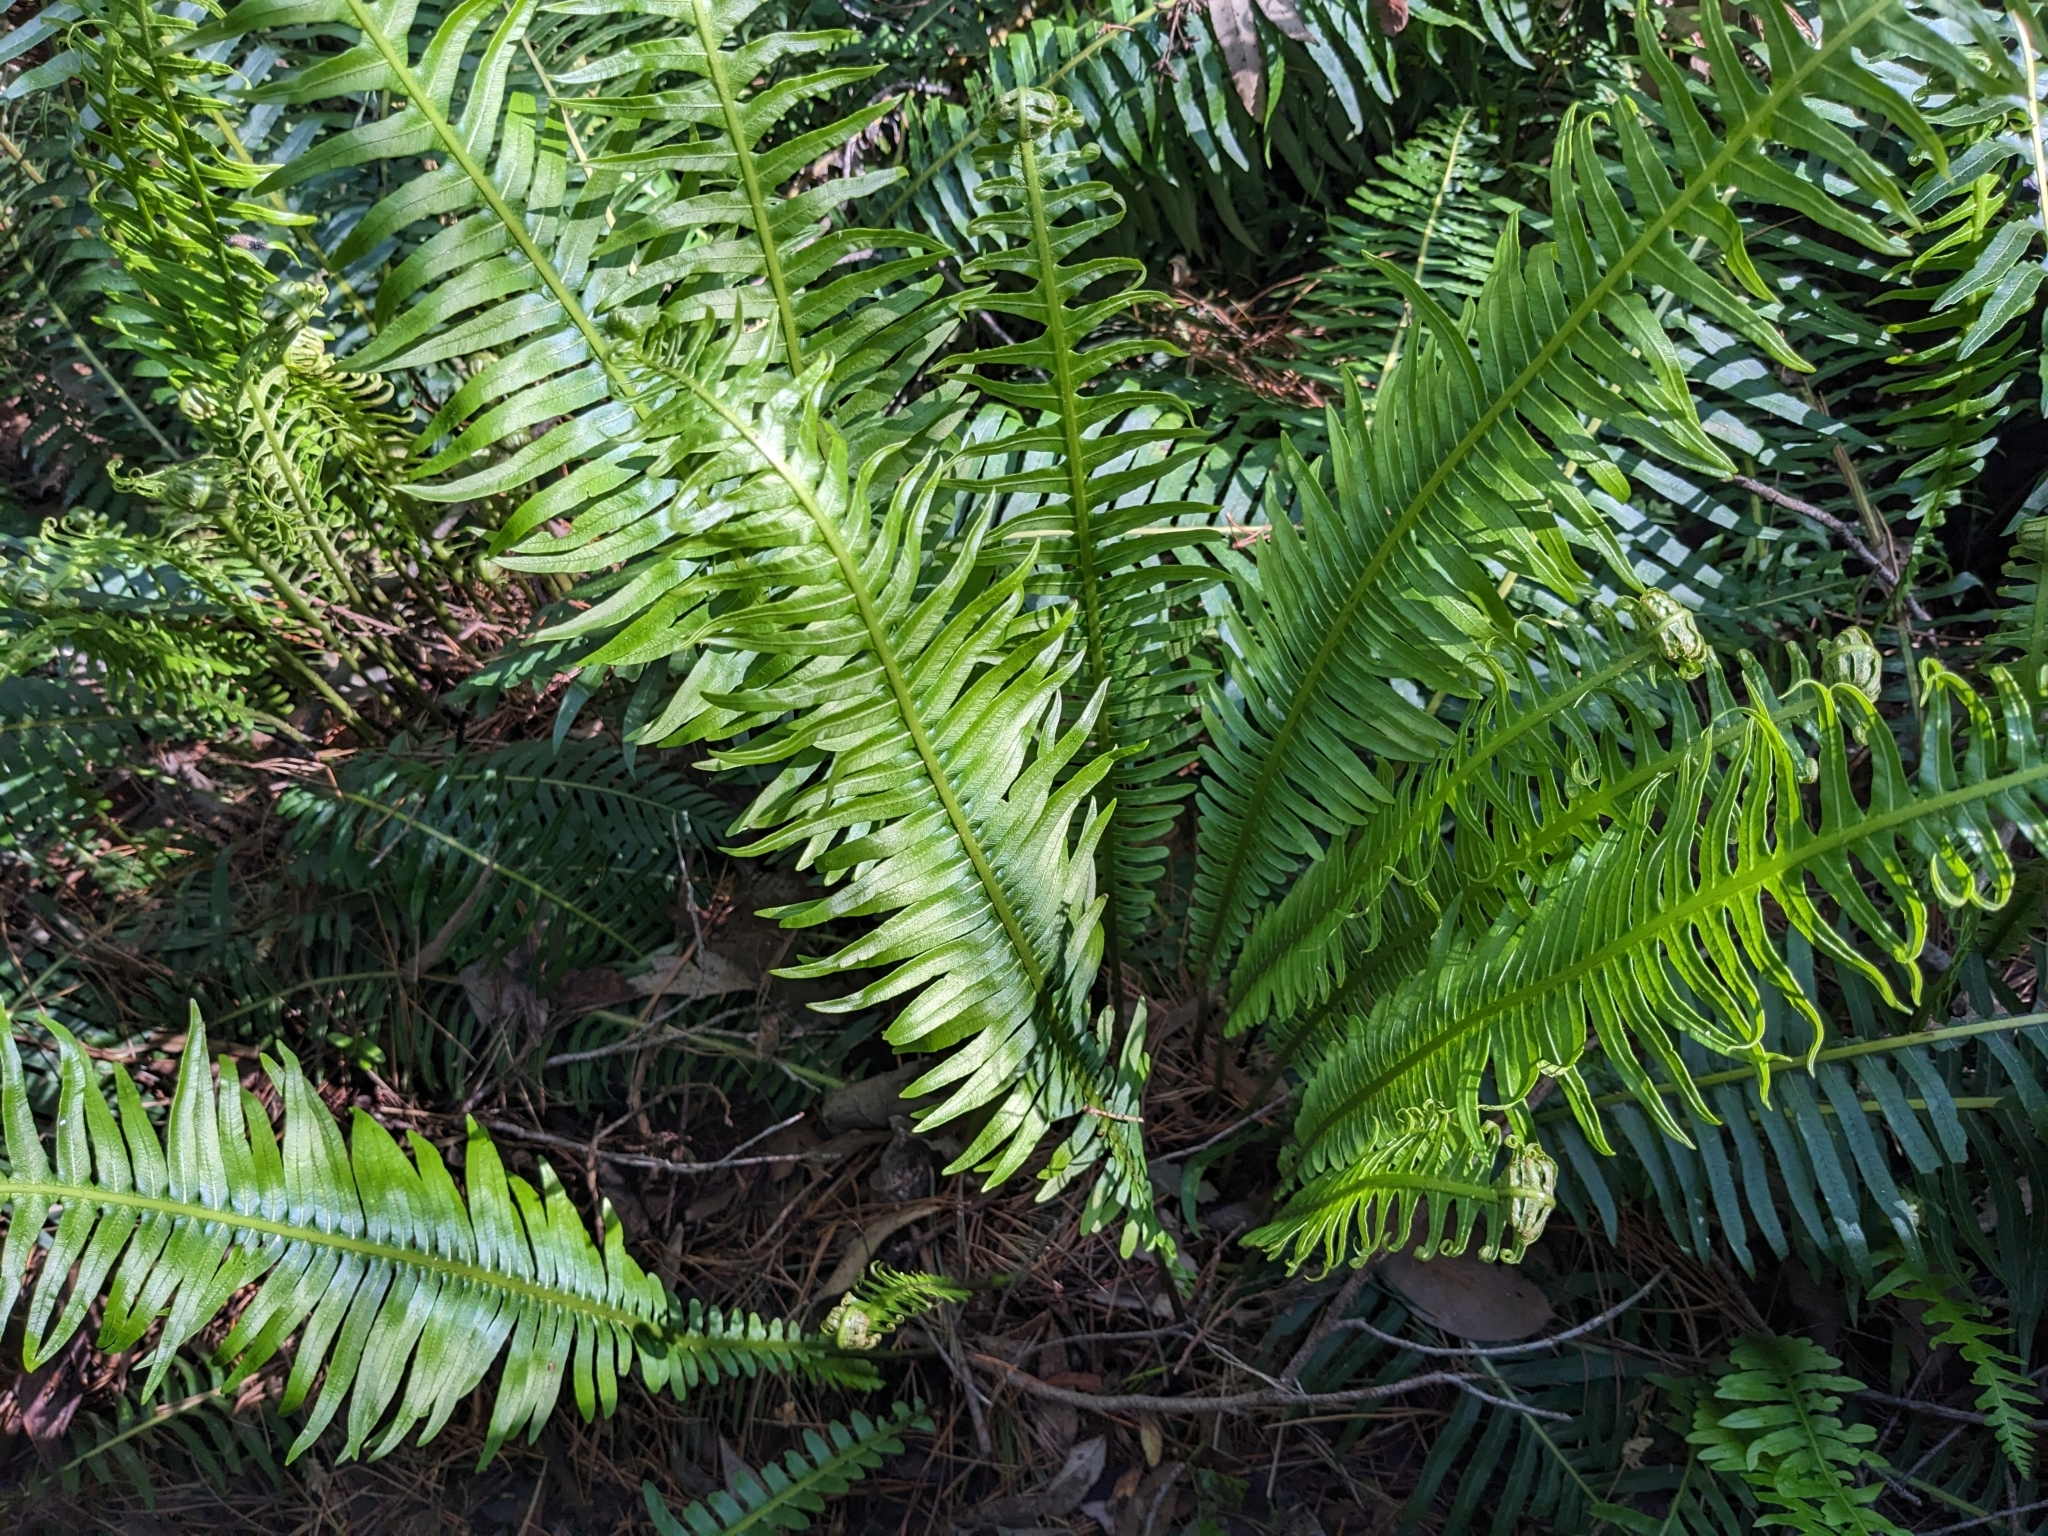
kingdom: Plantae
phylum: Tracheophyta
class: Polypodiopsida
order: Polypodiales
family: Blechnaceae
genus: Lomaria
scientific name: Lomaria nuda
